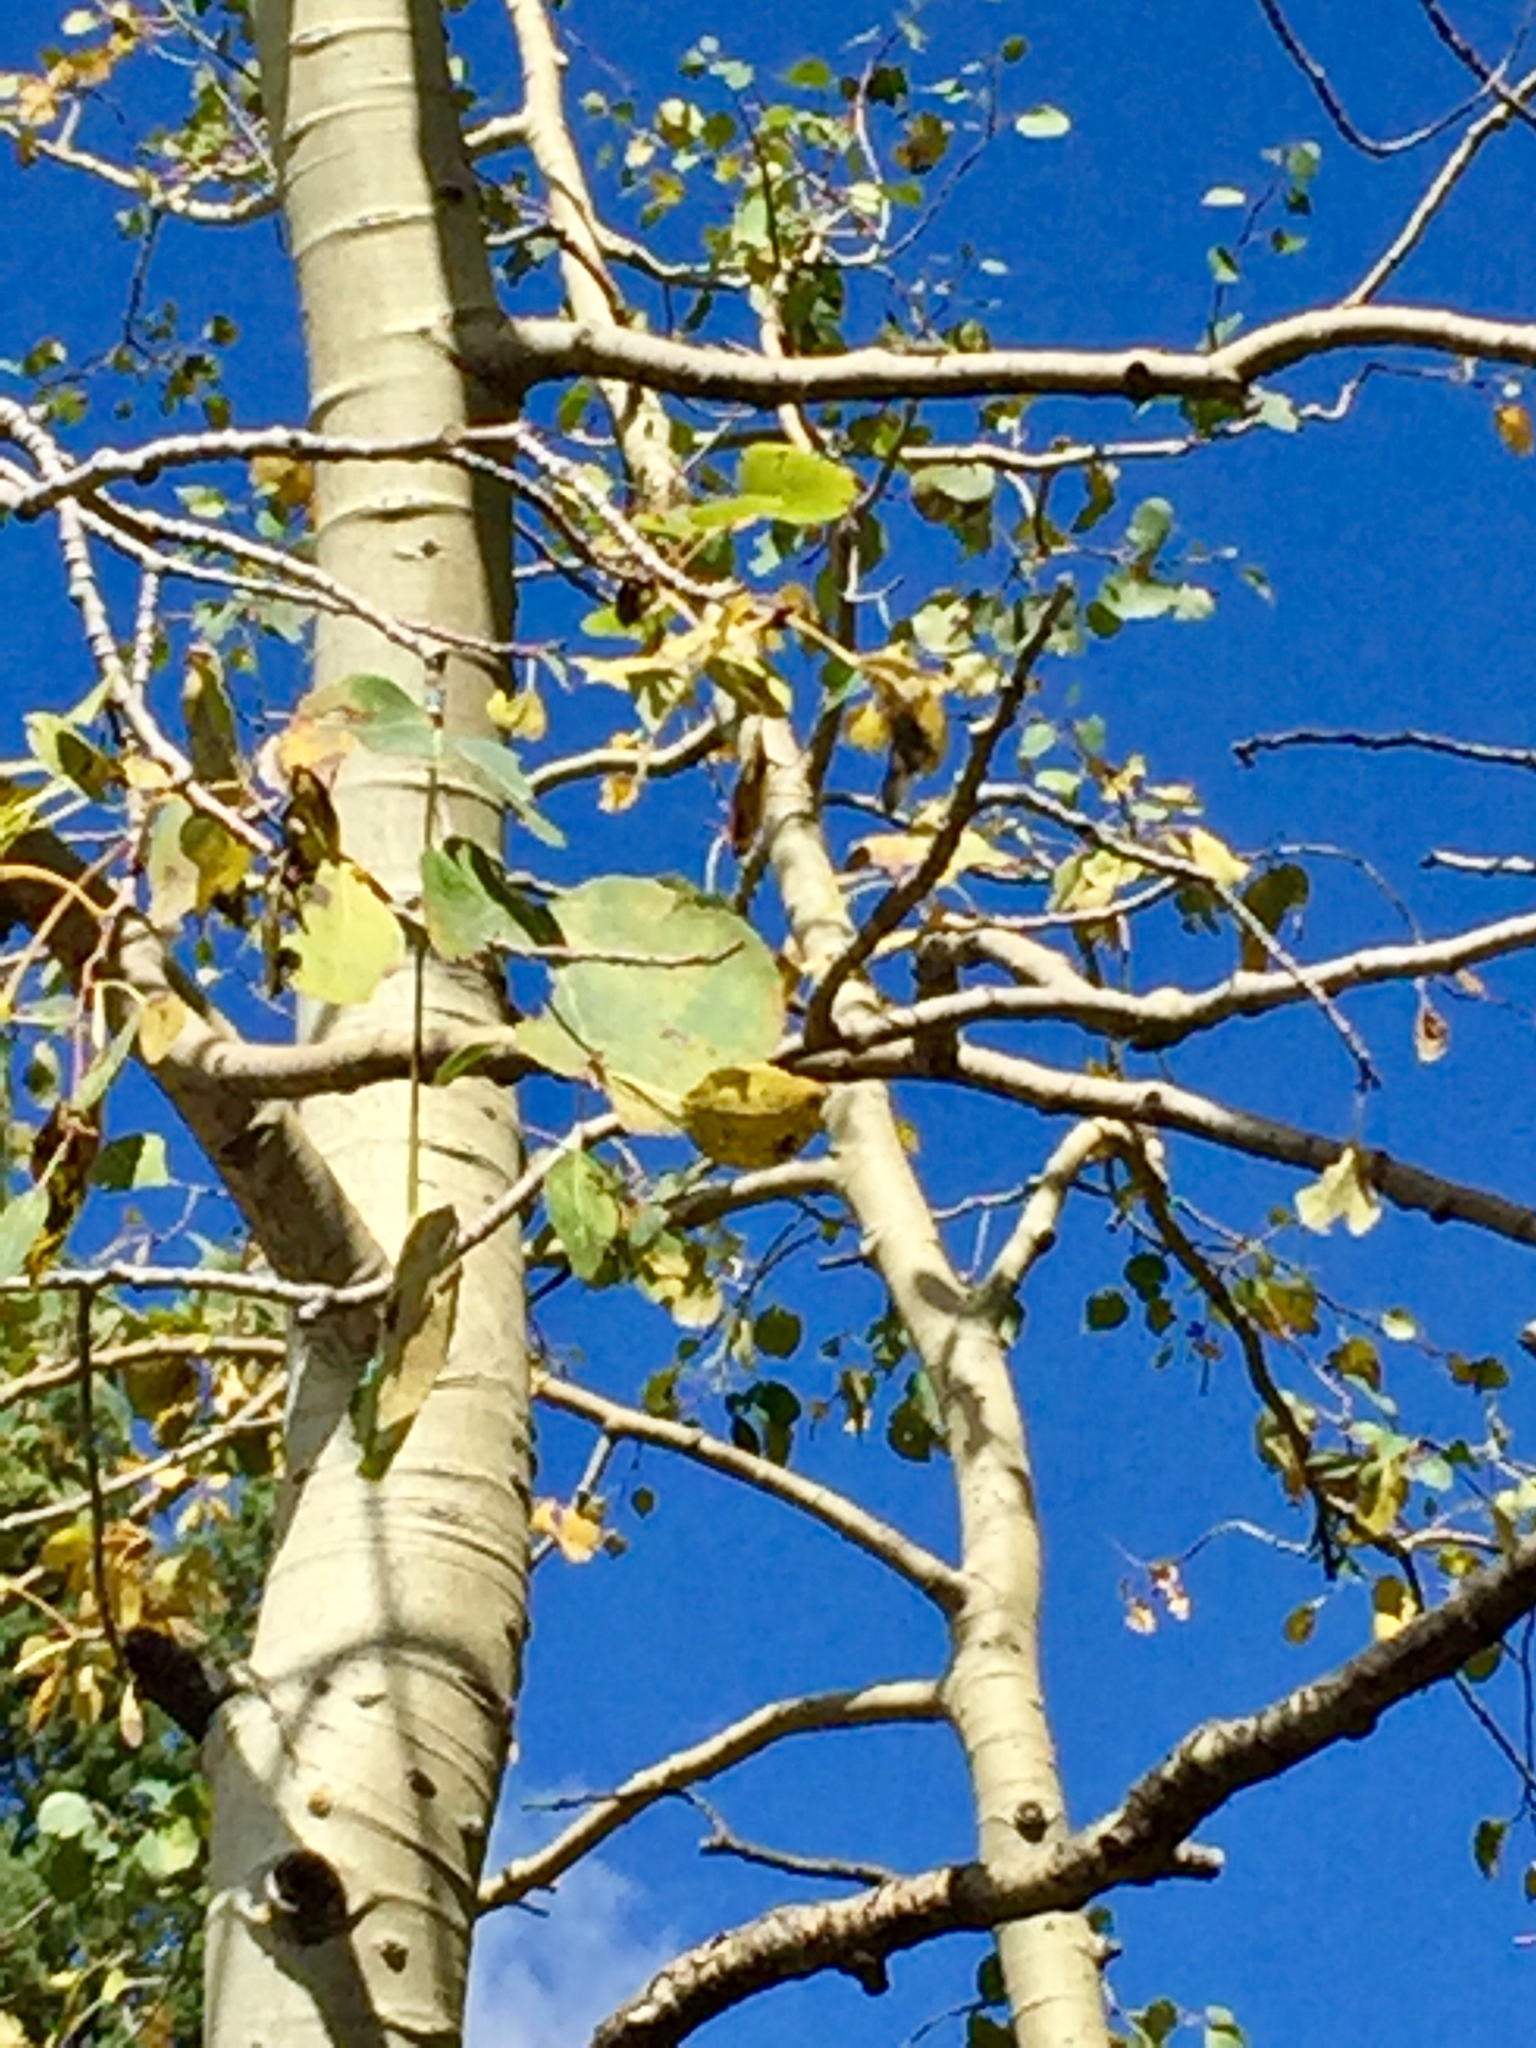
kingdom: Plantae
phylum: Tracheophyta
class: Magnoliopsida
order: Malpighiales
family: Salicaceae
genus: Populus
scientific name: Populus tremuloides
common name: Quaking aspen
